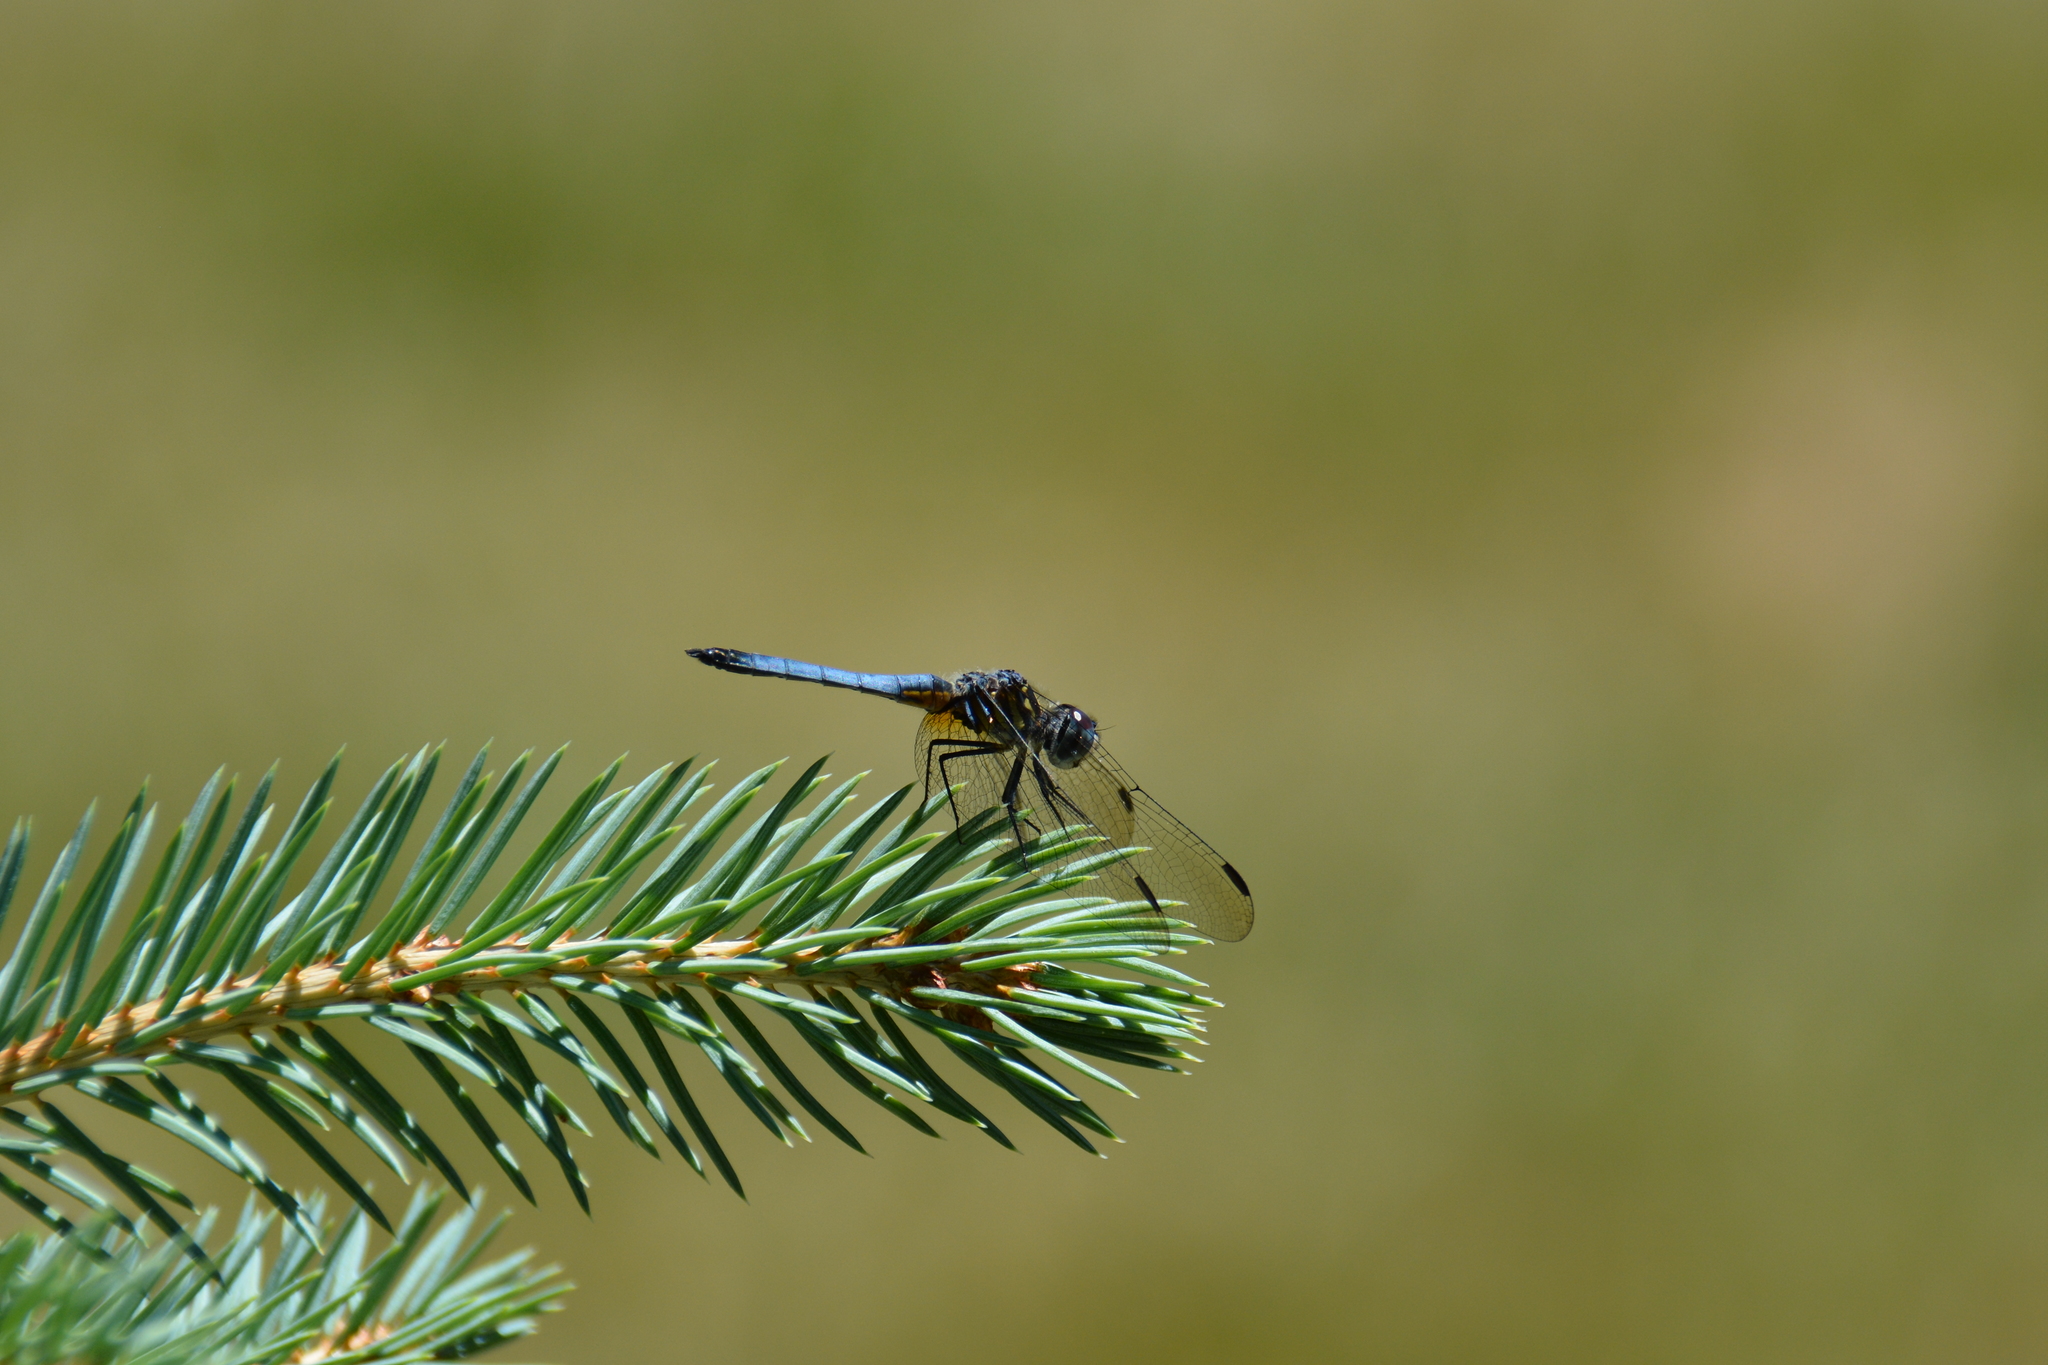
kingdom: Animalia
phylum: Arthropoda
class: Insecta
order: Odonata
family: Libellulidae
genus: Pachydiplax
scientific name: Pachydiplax longipennis
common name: Blue dasher
